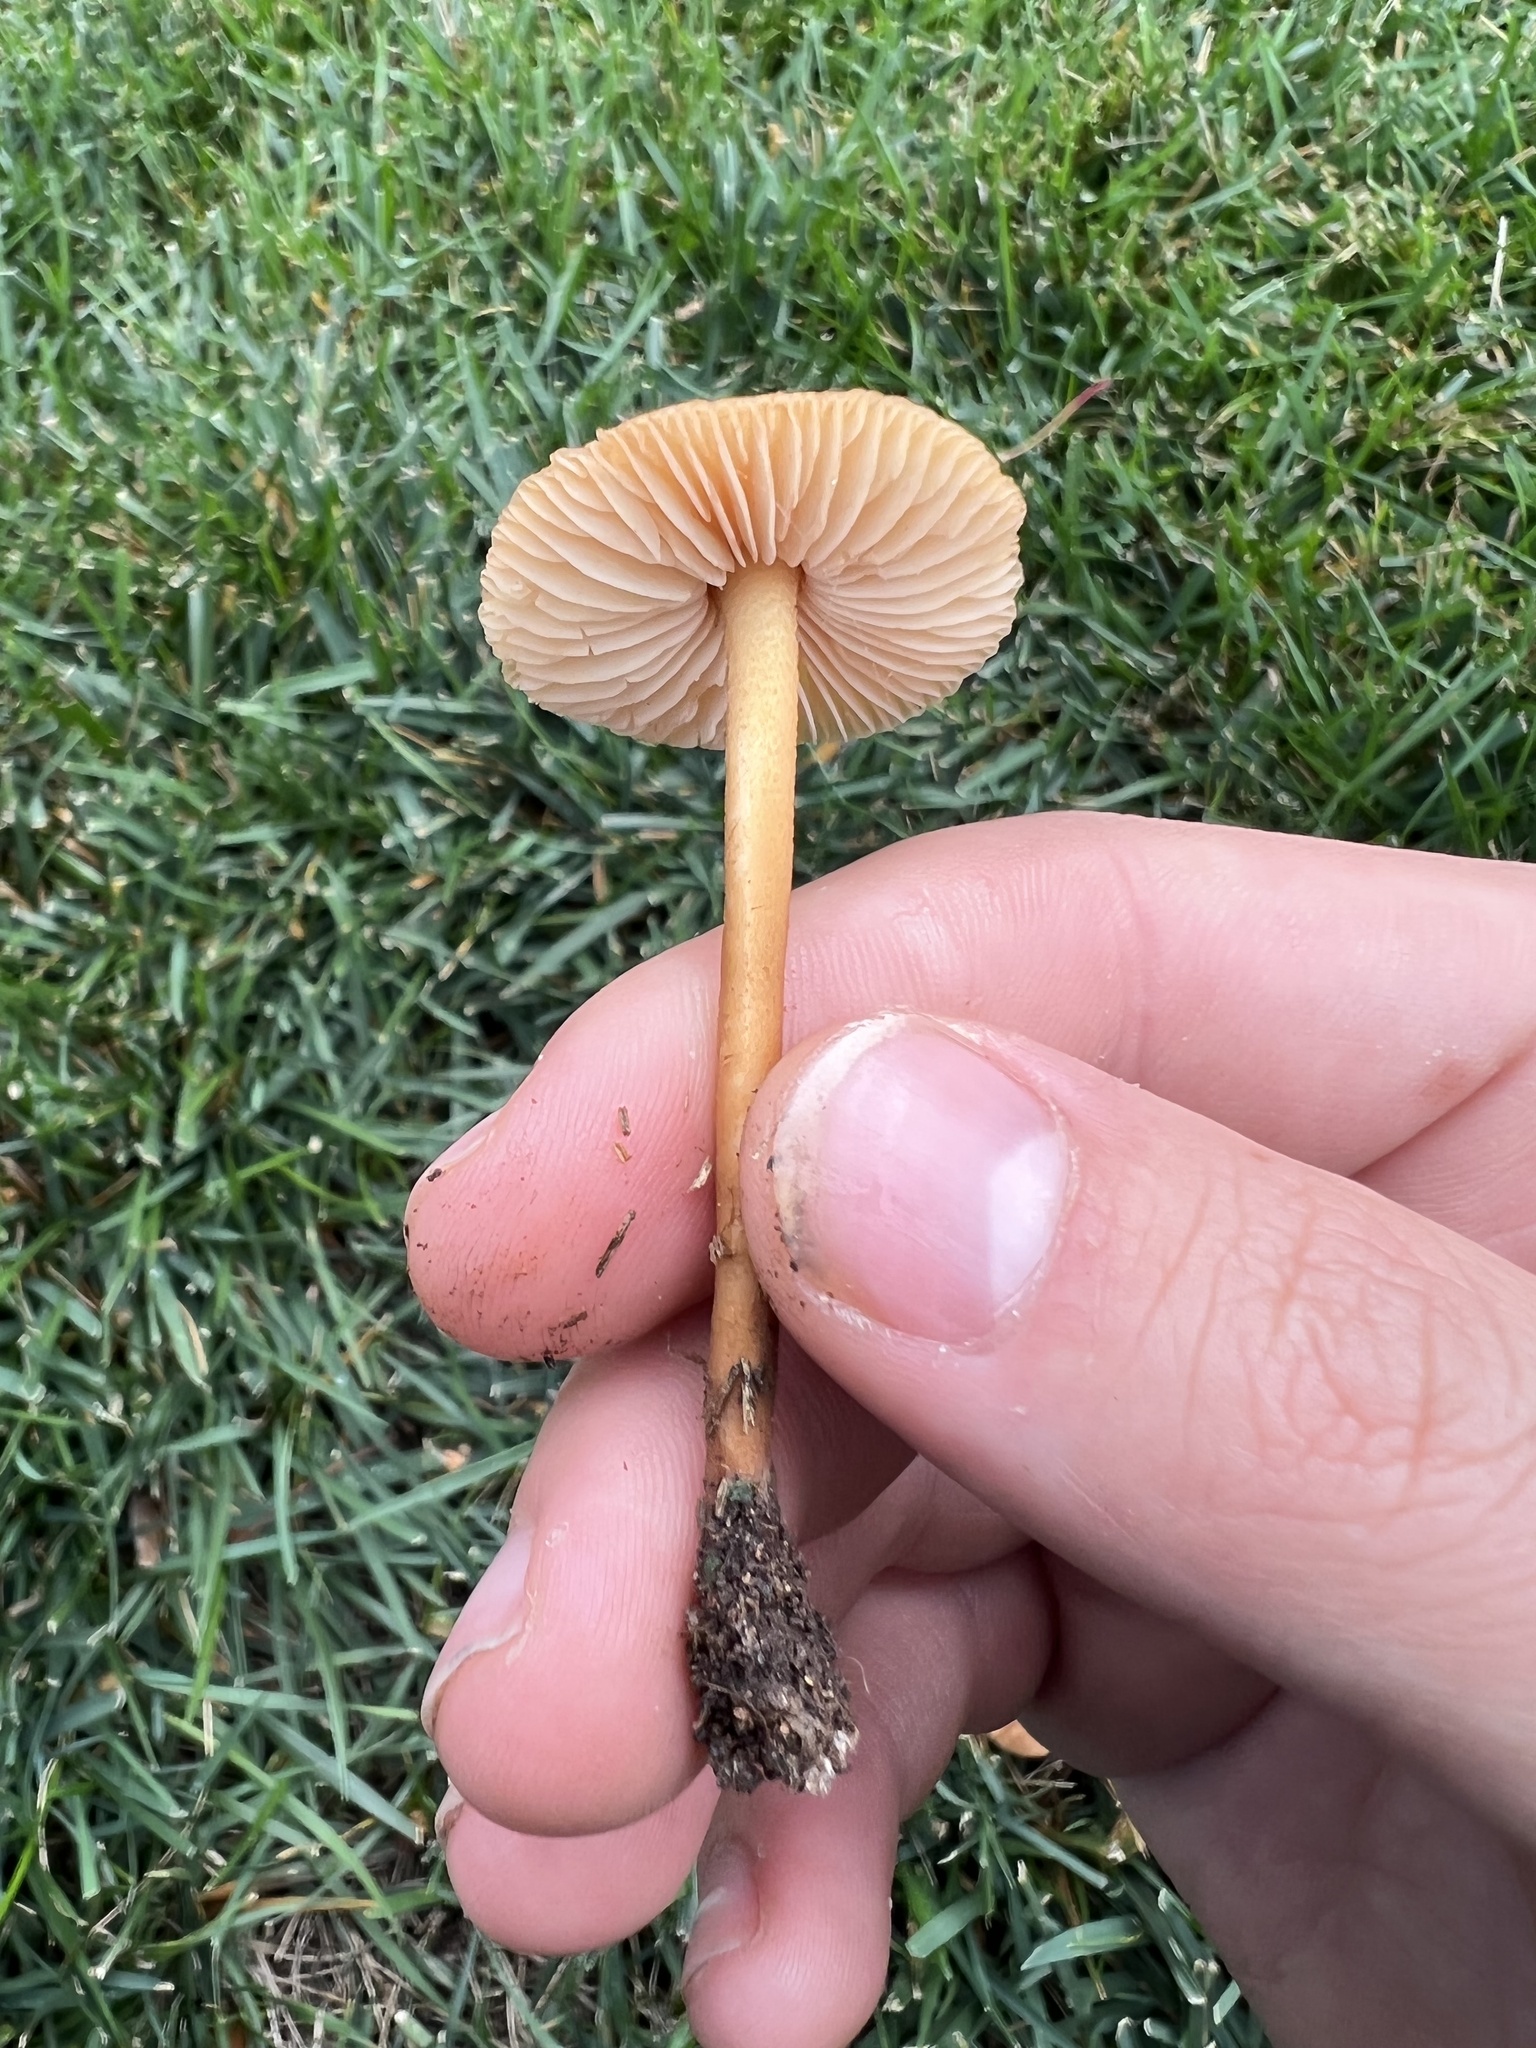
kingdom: Fungi
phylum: Basidiomycota
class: Agaricomycetes
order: Agaricales
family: Marasmiaceae
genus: Marasmius
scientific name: Marasmius oreades
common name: Fairy ring champignon
